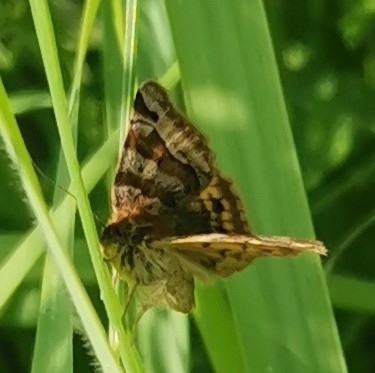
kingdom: Animalia
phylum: Arthropoda
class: Insecta
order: Lepidoptera
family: Erebidae
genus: Euclidia
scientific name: Euclidia glyphica
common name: Burnet companion
